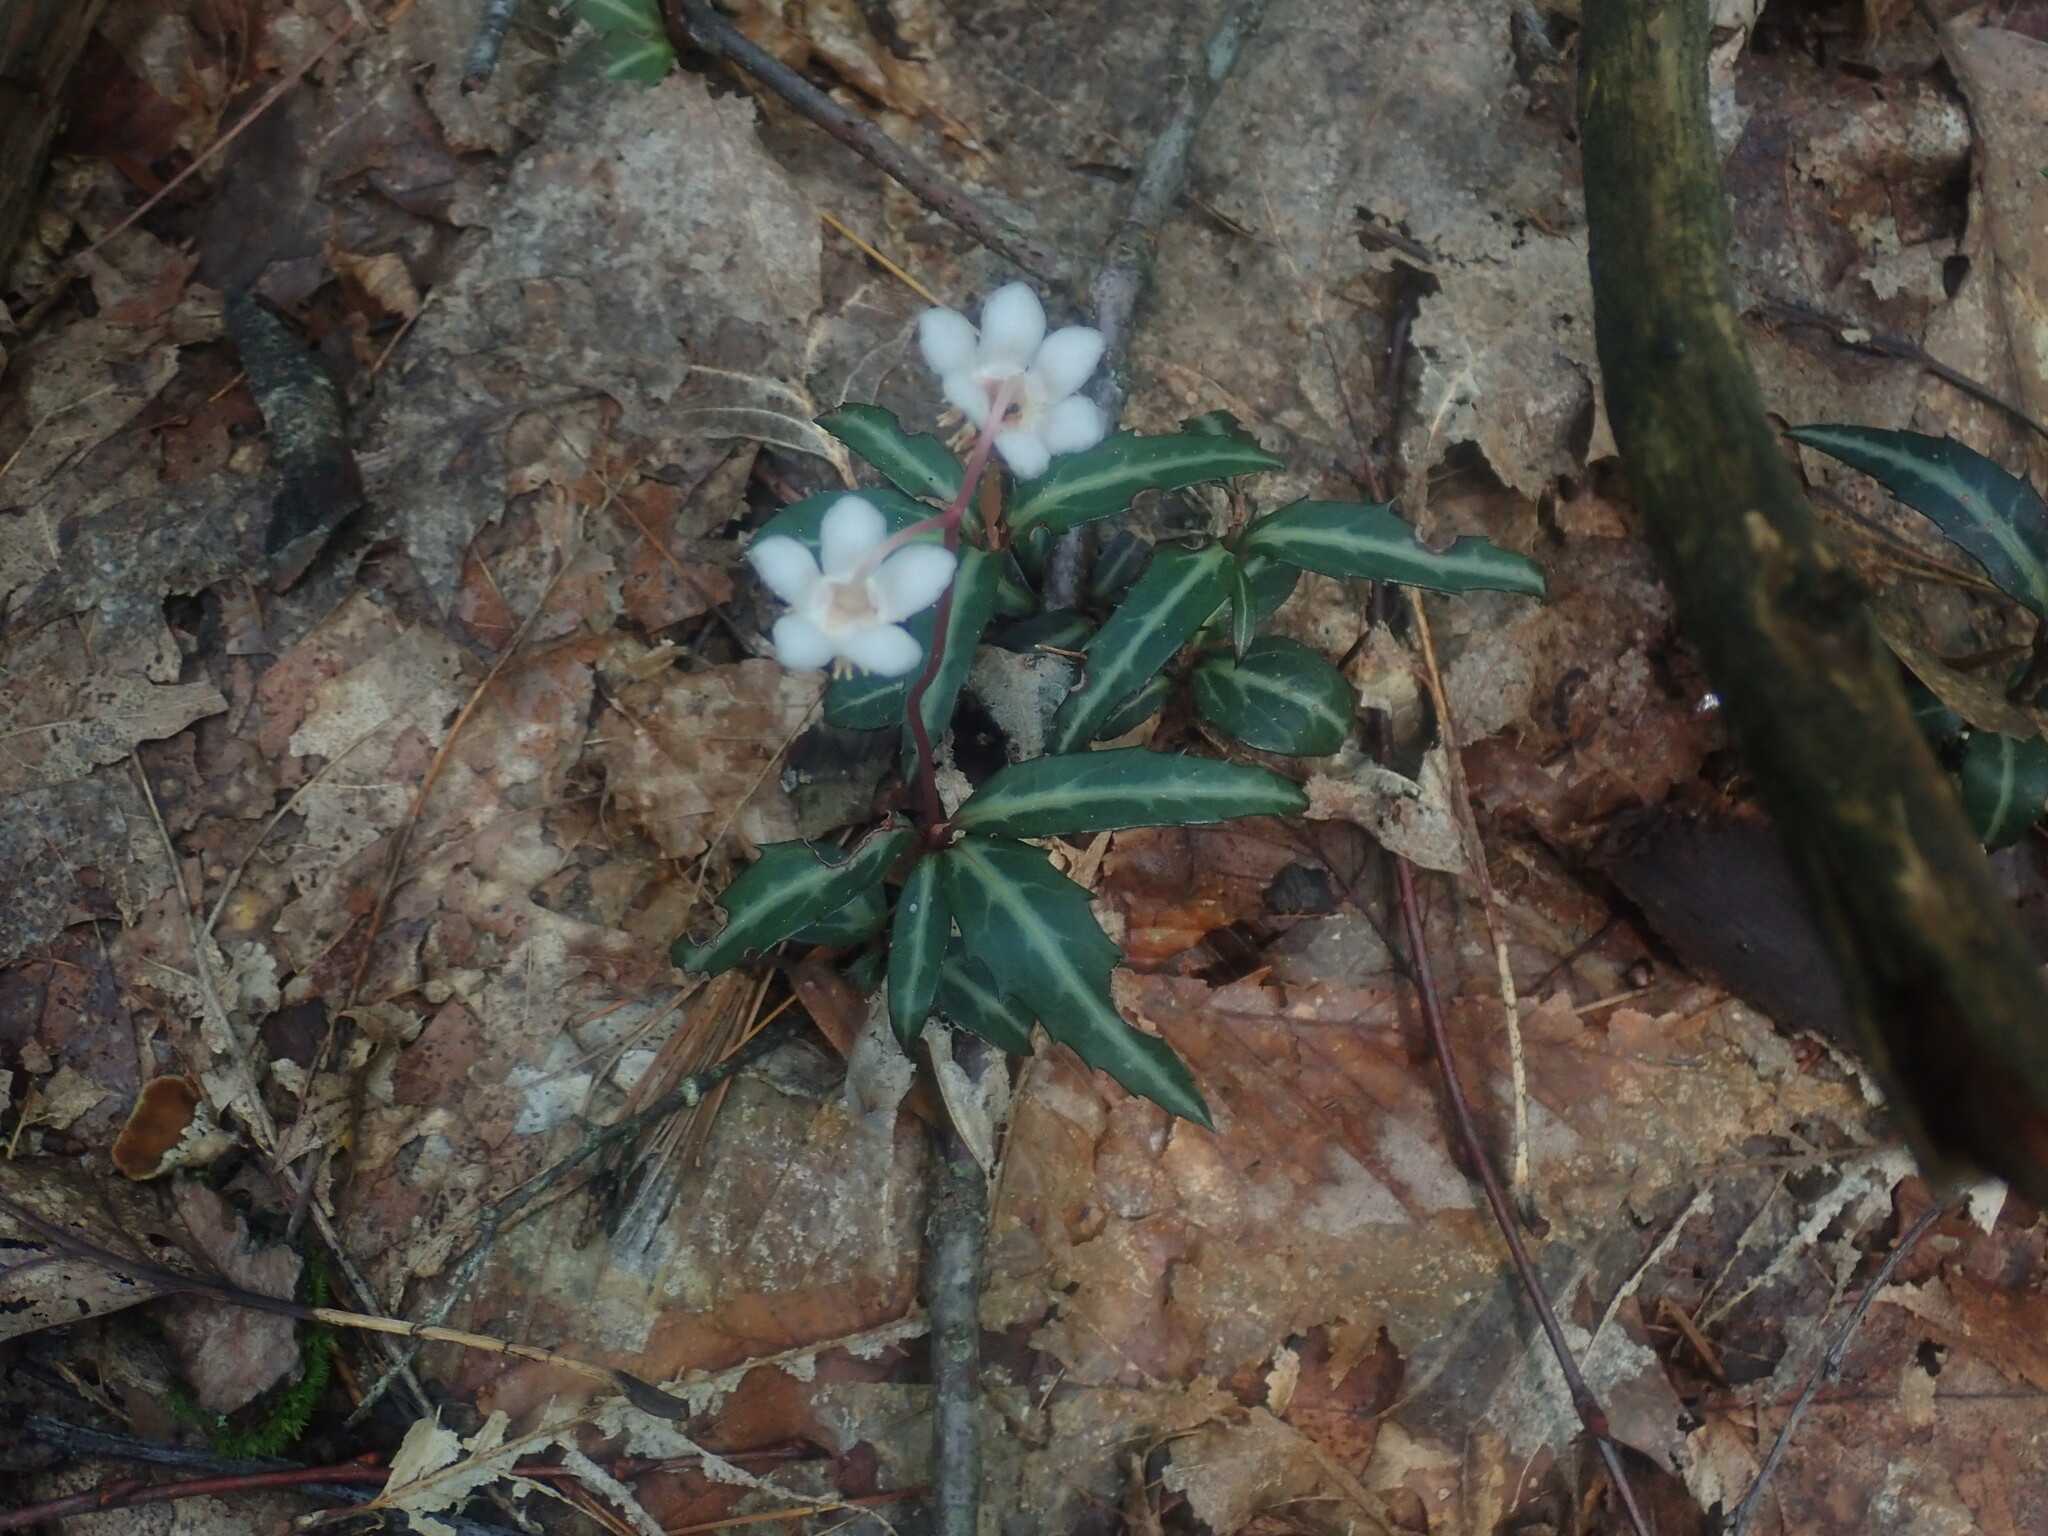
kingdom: Plantae
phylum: Tracheophyta
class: Magnoliopsida
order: Ericales
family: Ericaceae
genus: Chimaphila
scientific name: Chimaphila maculata
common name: Spotted pipsissewa
